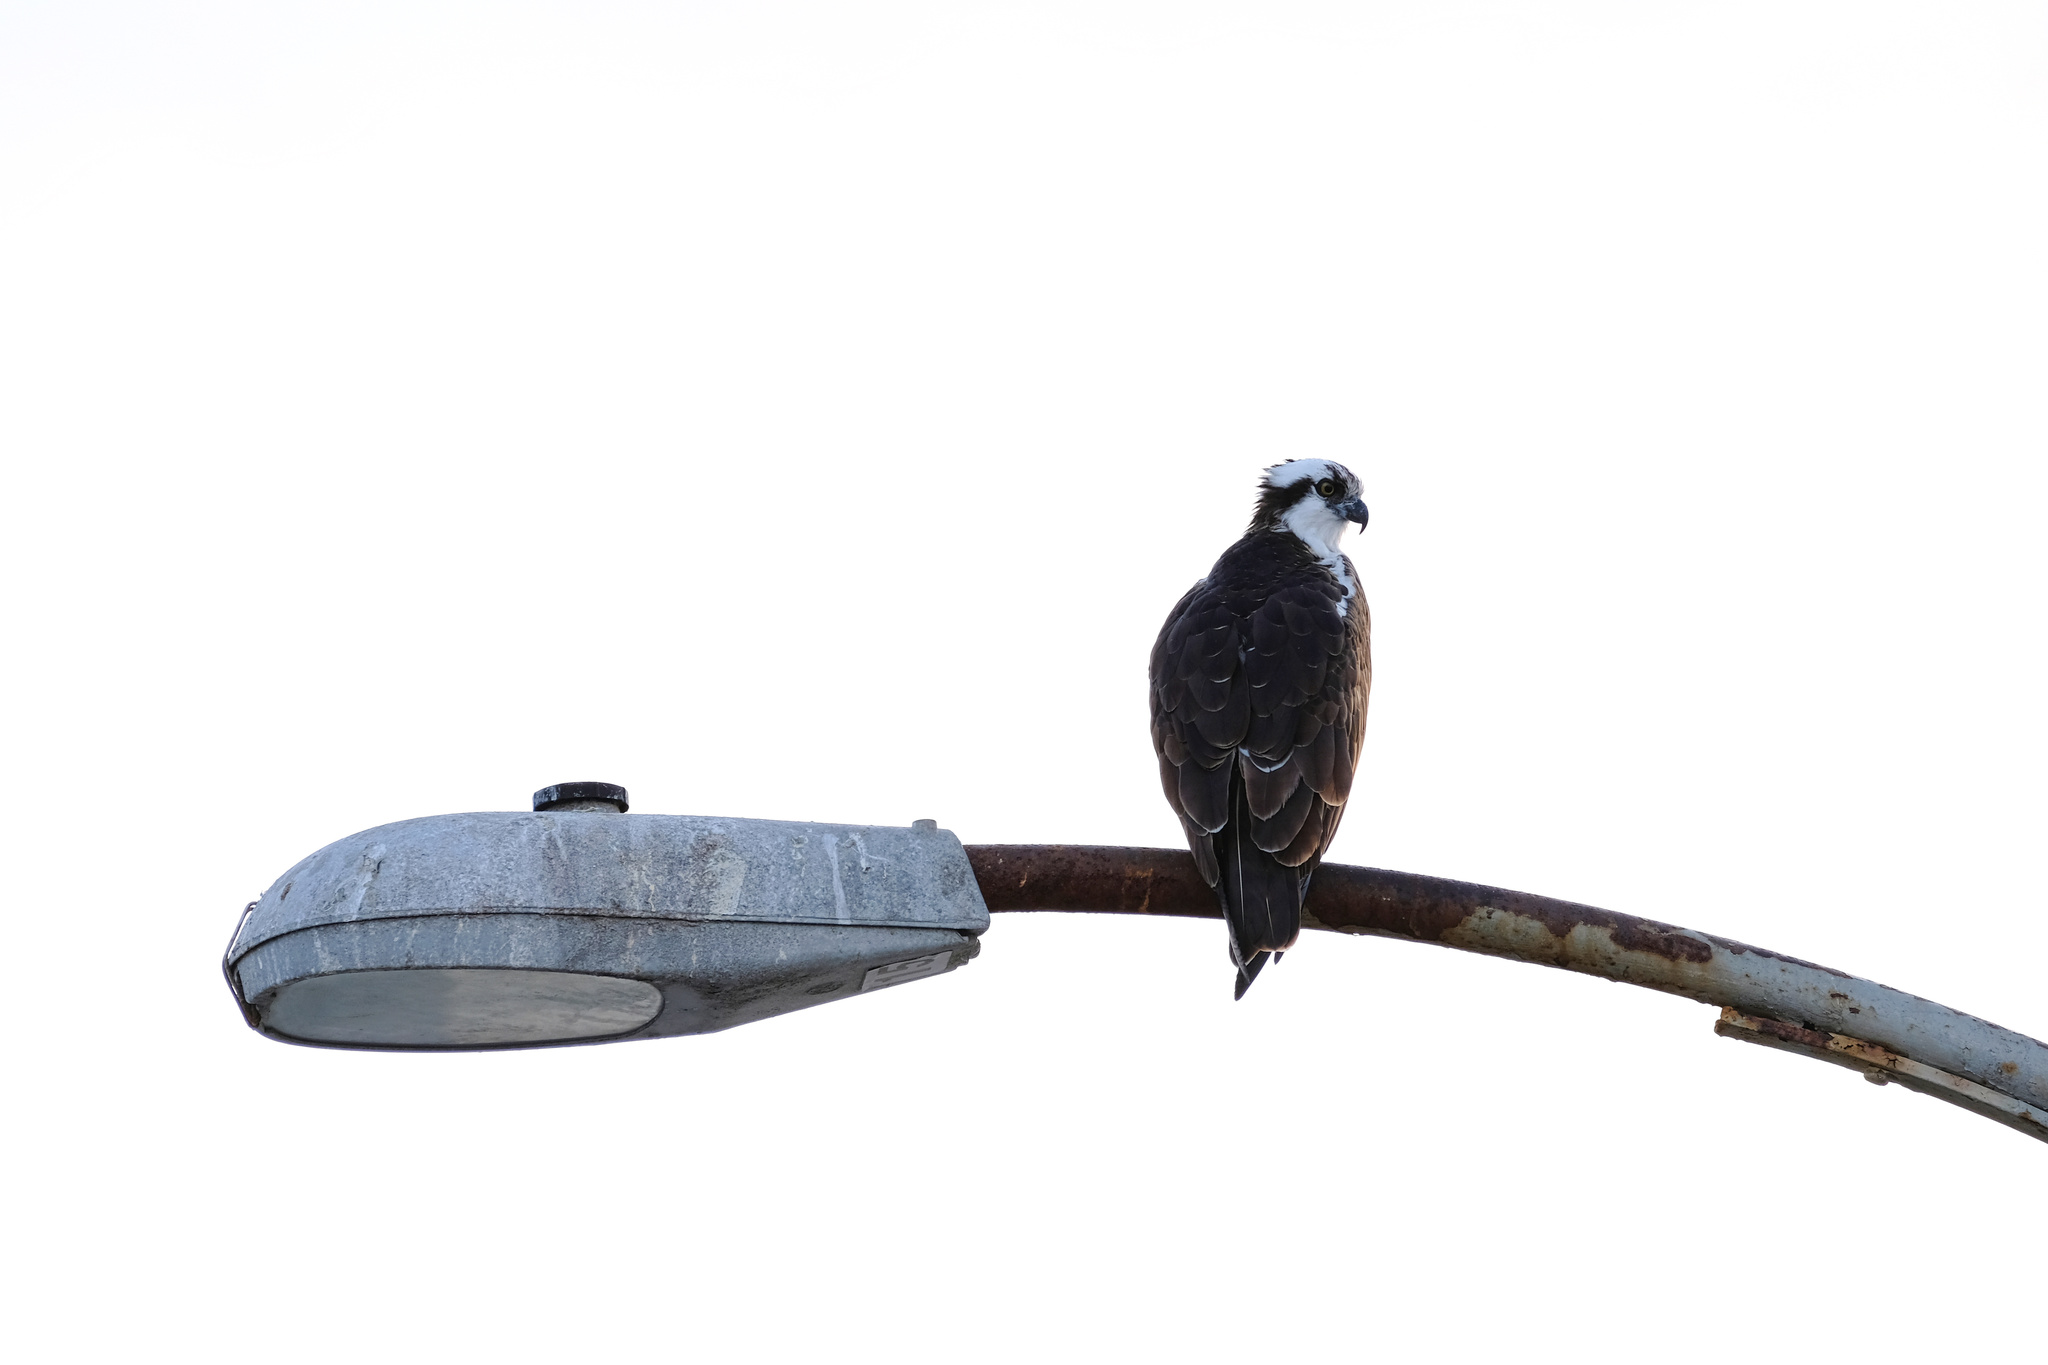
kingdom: Animalia
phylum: Chordata
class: Aves
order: Accipitriformes
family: Pandionidae
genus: Pandion
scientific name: Pandion haliaetus
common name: Osprey
